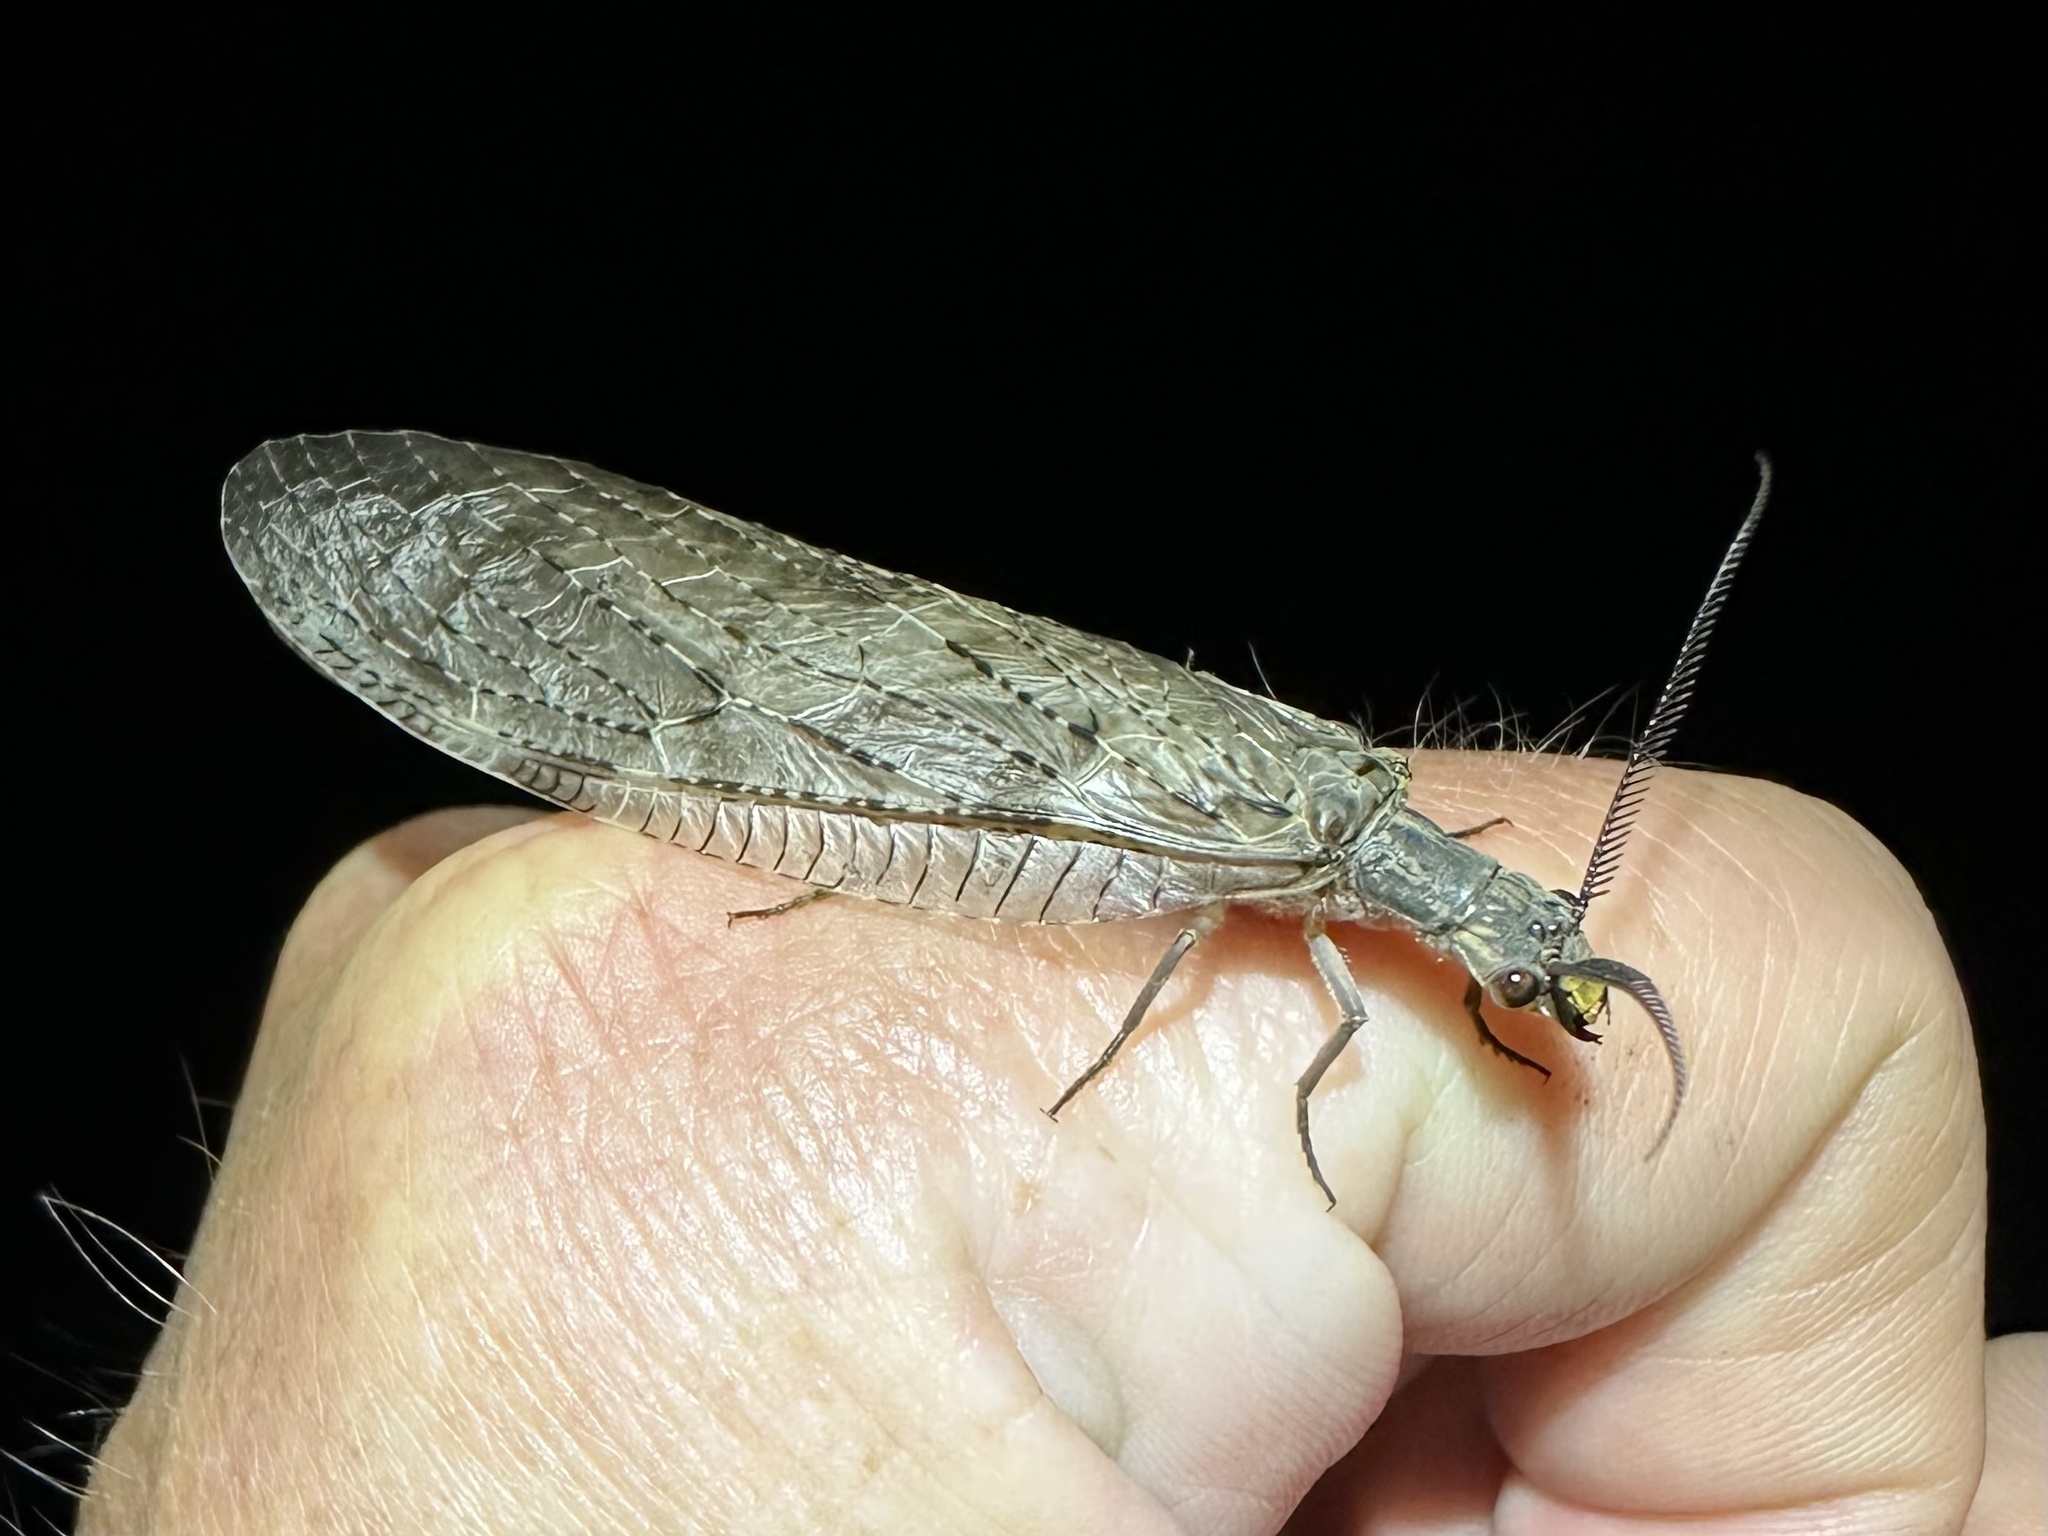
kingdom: Animalia
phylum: Arthropoda
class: Insecta
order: Megaloptera
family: Corydalidae
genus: Chauliodes
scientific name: Chauliodes pectinicornis
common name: Summer fishfly
